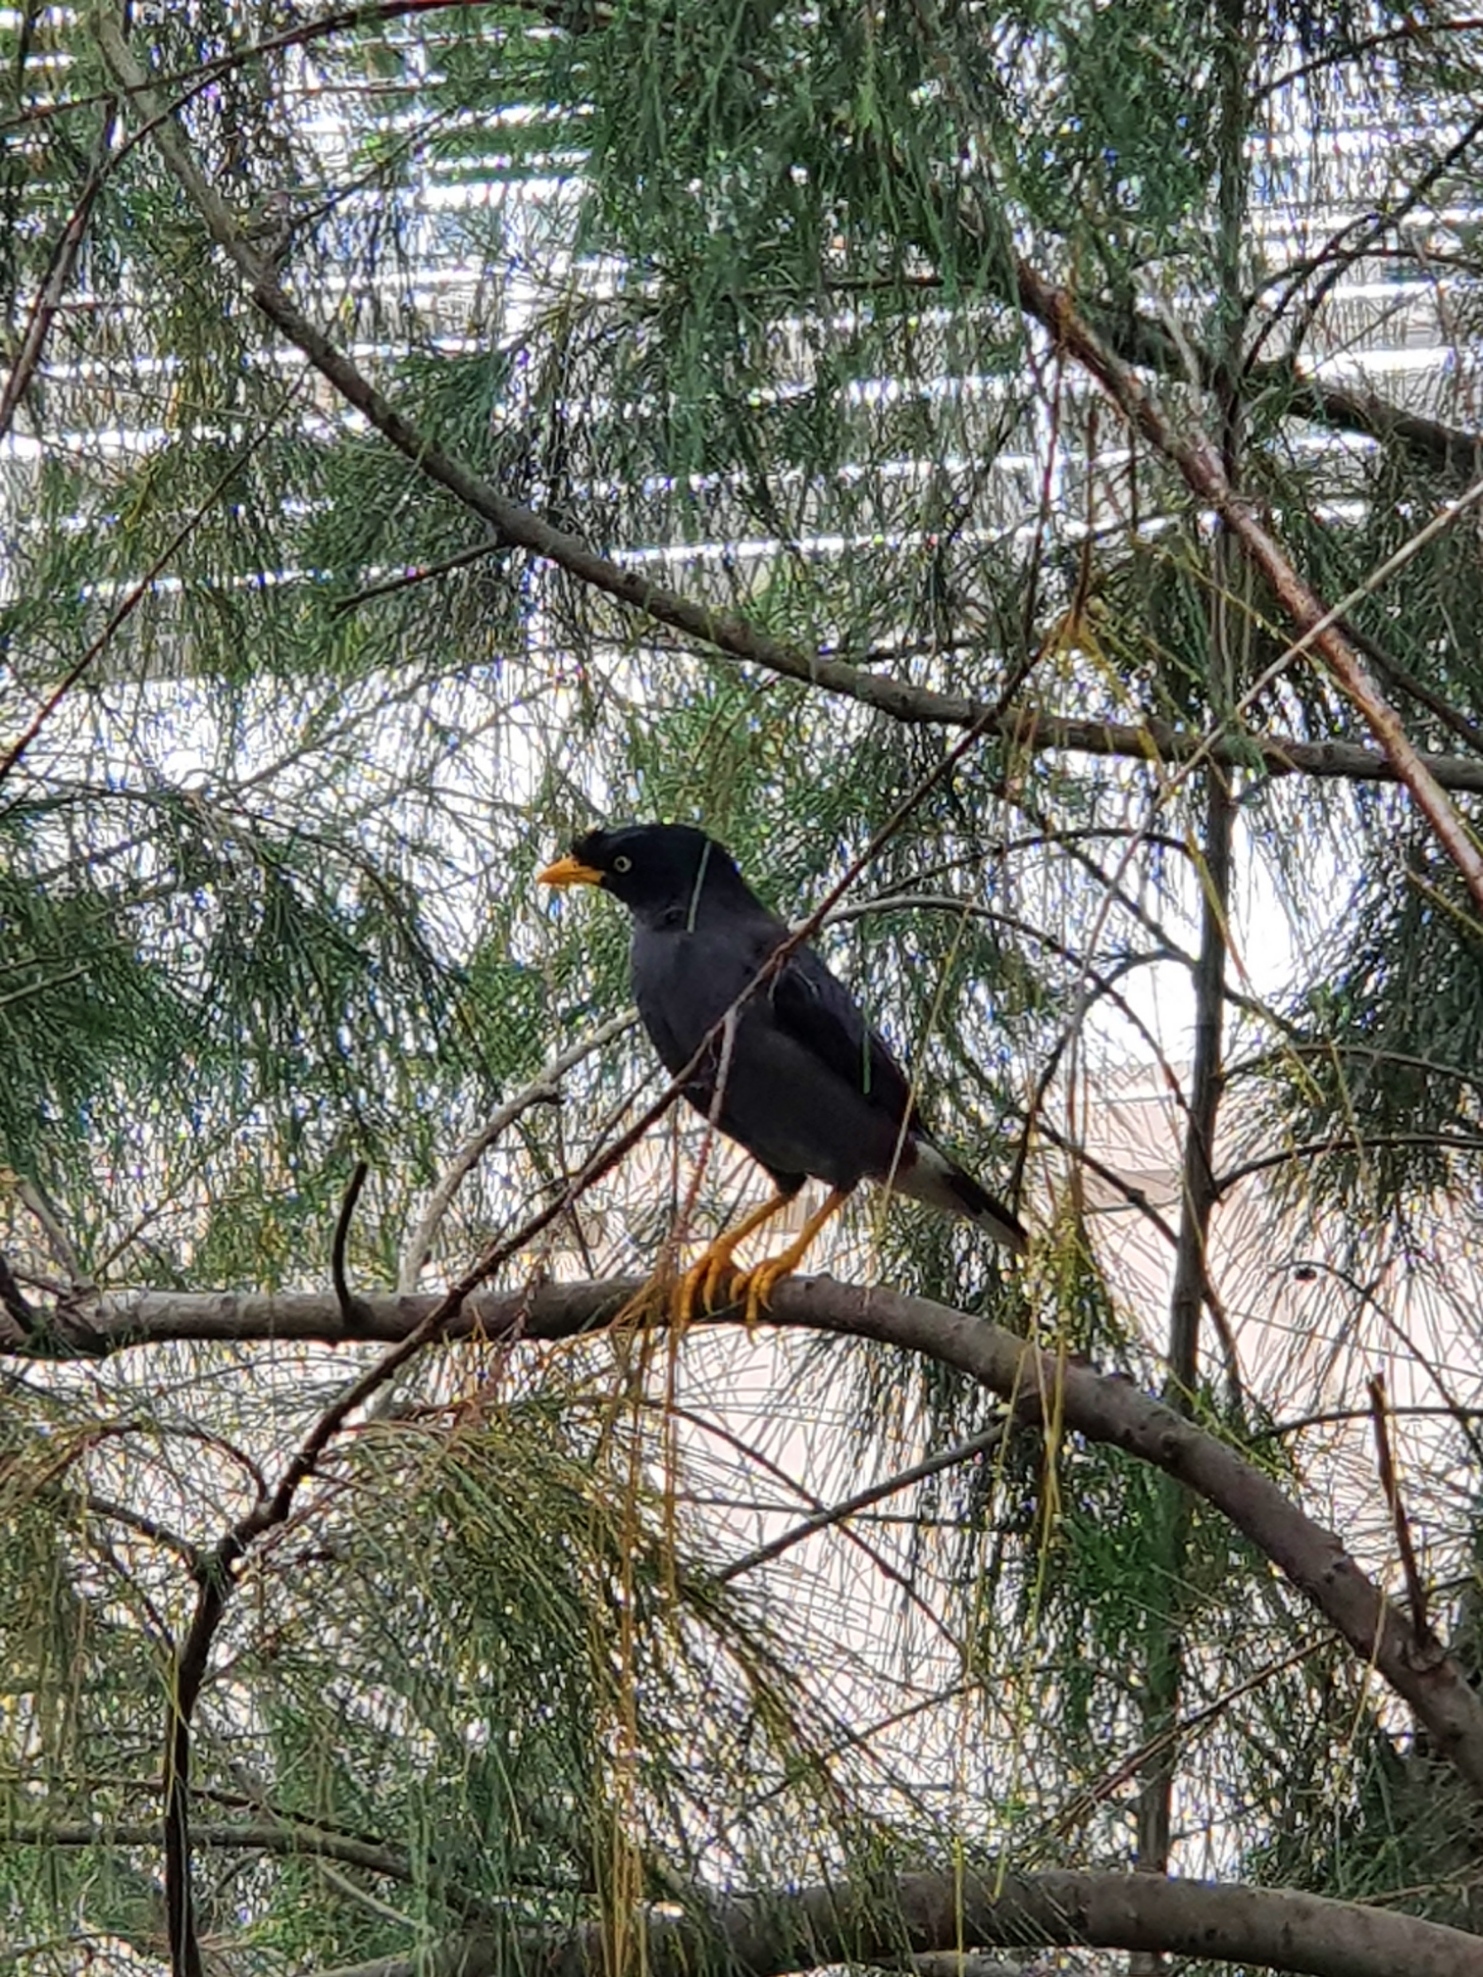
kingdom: Animalia
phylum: Chordata
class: Aves
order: Passeriformes
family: Sturnidae
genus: Acridotheres
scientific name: Acridotheres javanicus
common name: Javan myna
